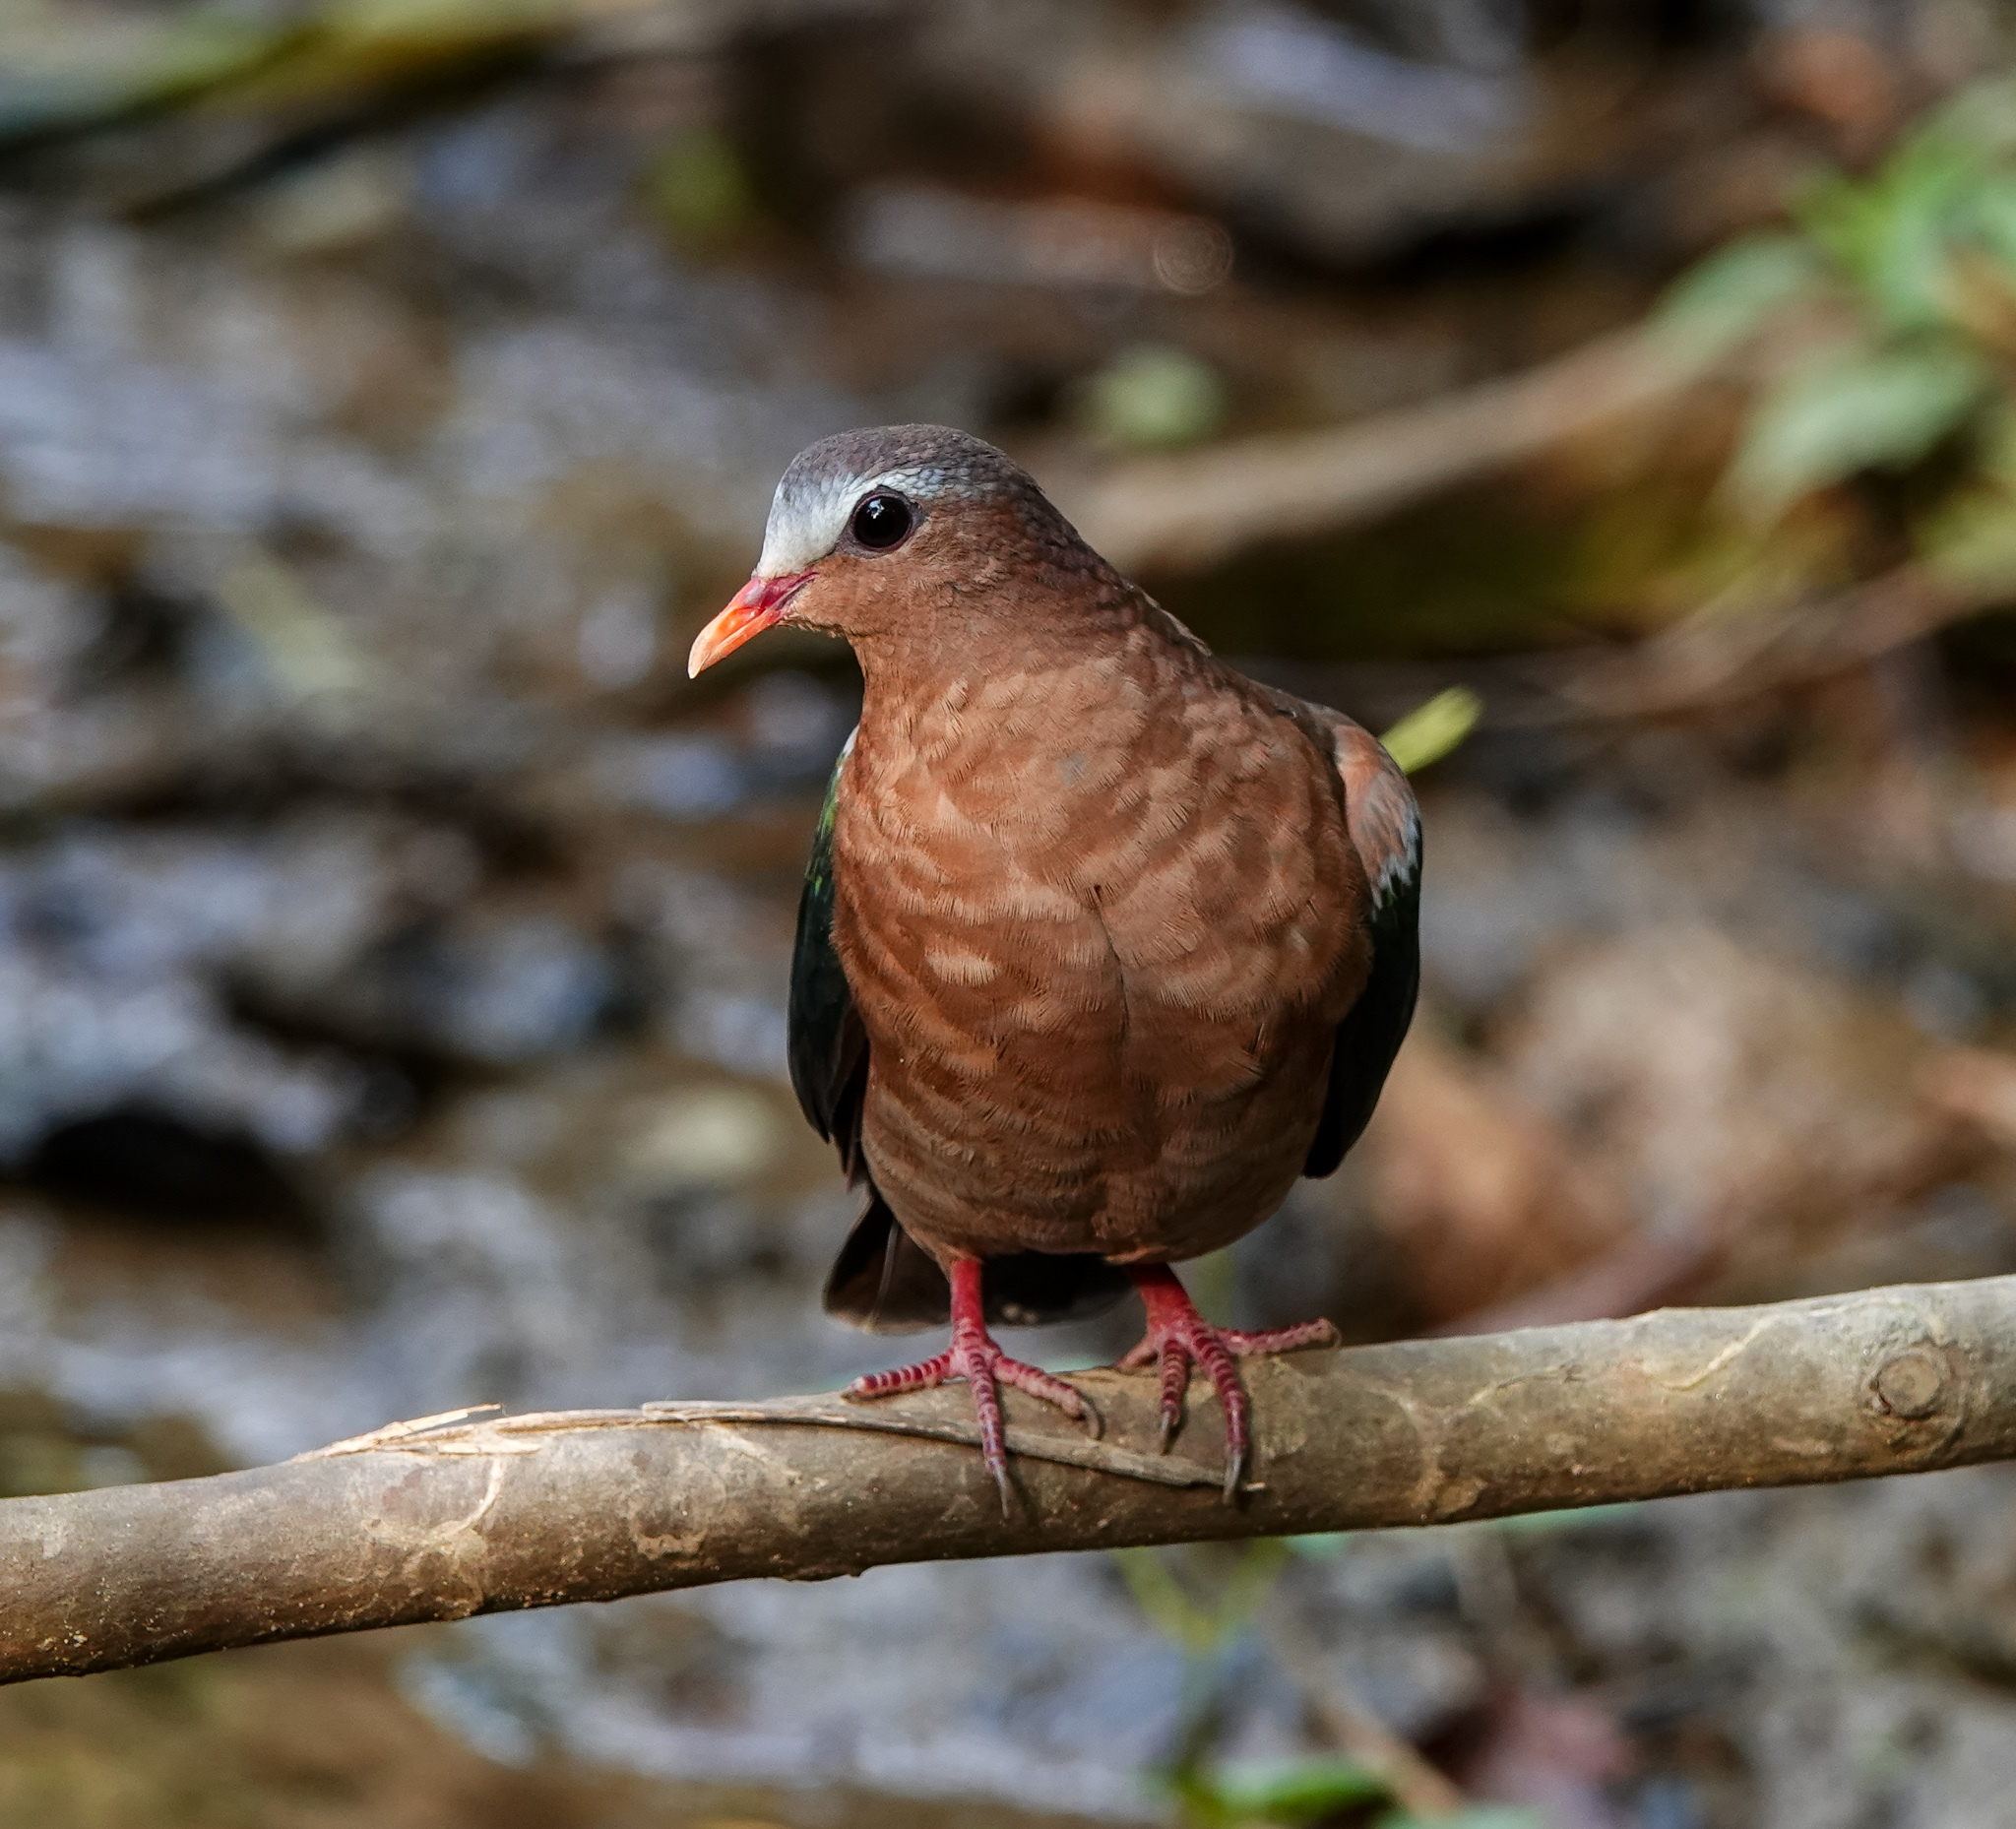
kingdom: Animalia
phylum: Chordata
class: Aves
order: Columbiformes
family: Columbidae
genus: Chalcophaps
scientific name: Chalcophaps indica
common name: Common emerald dove
